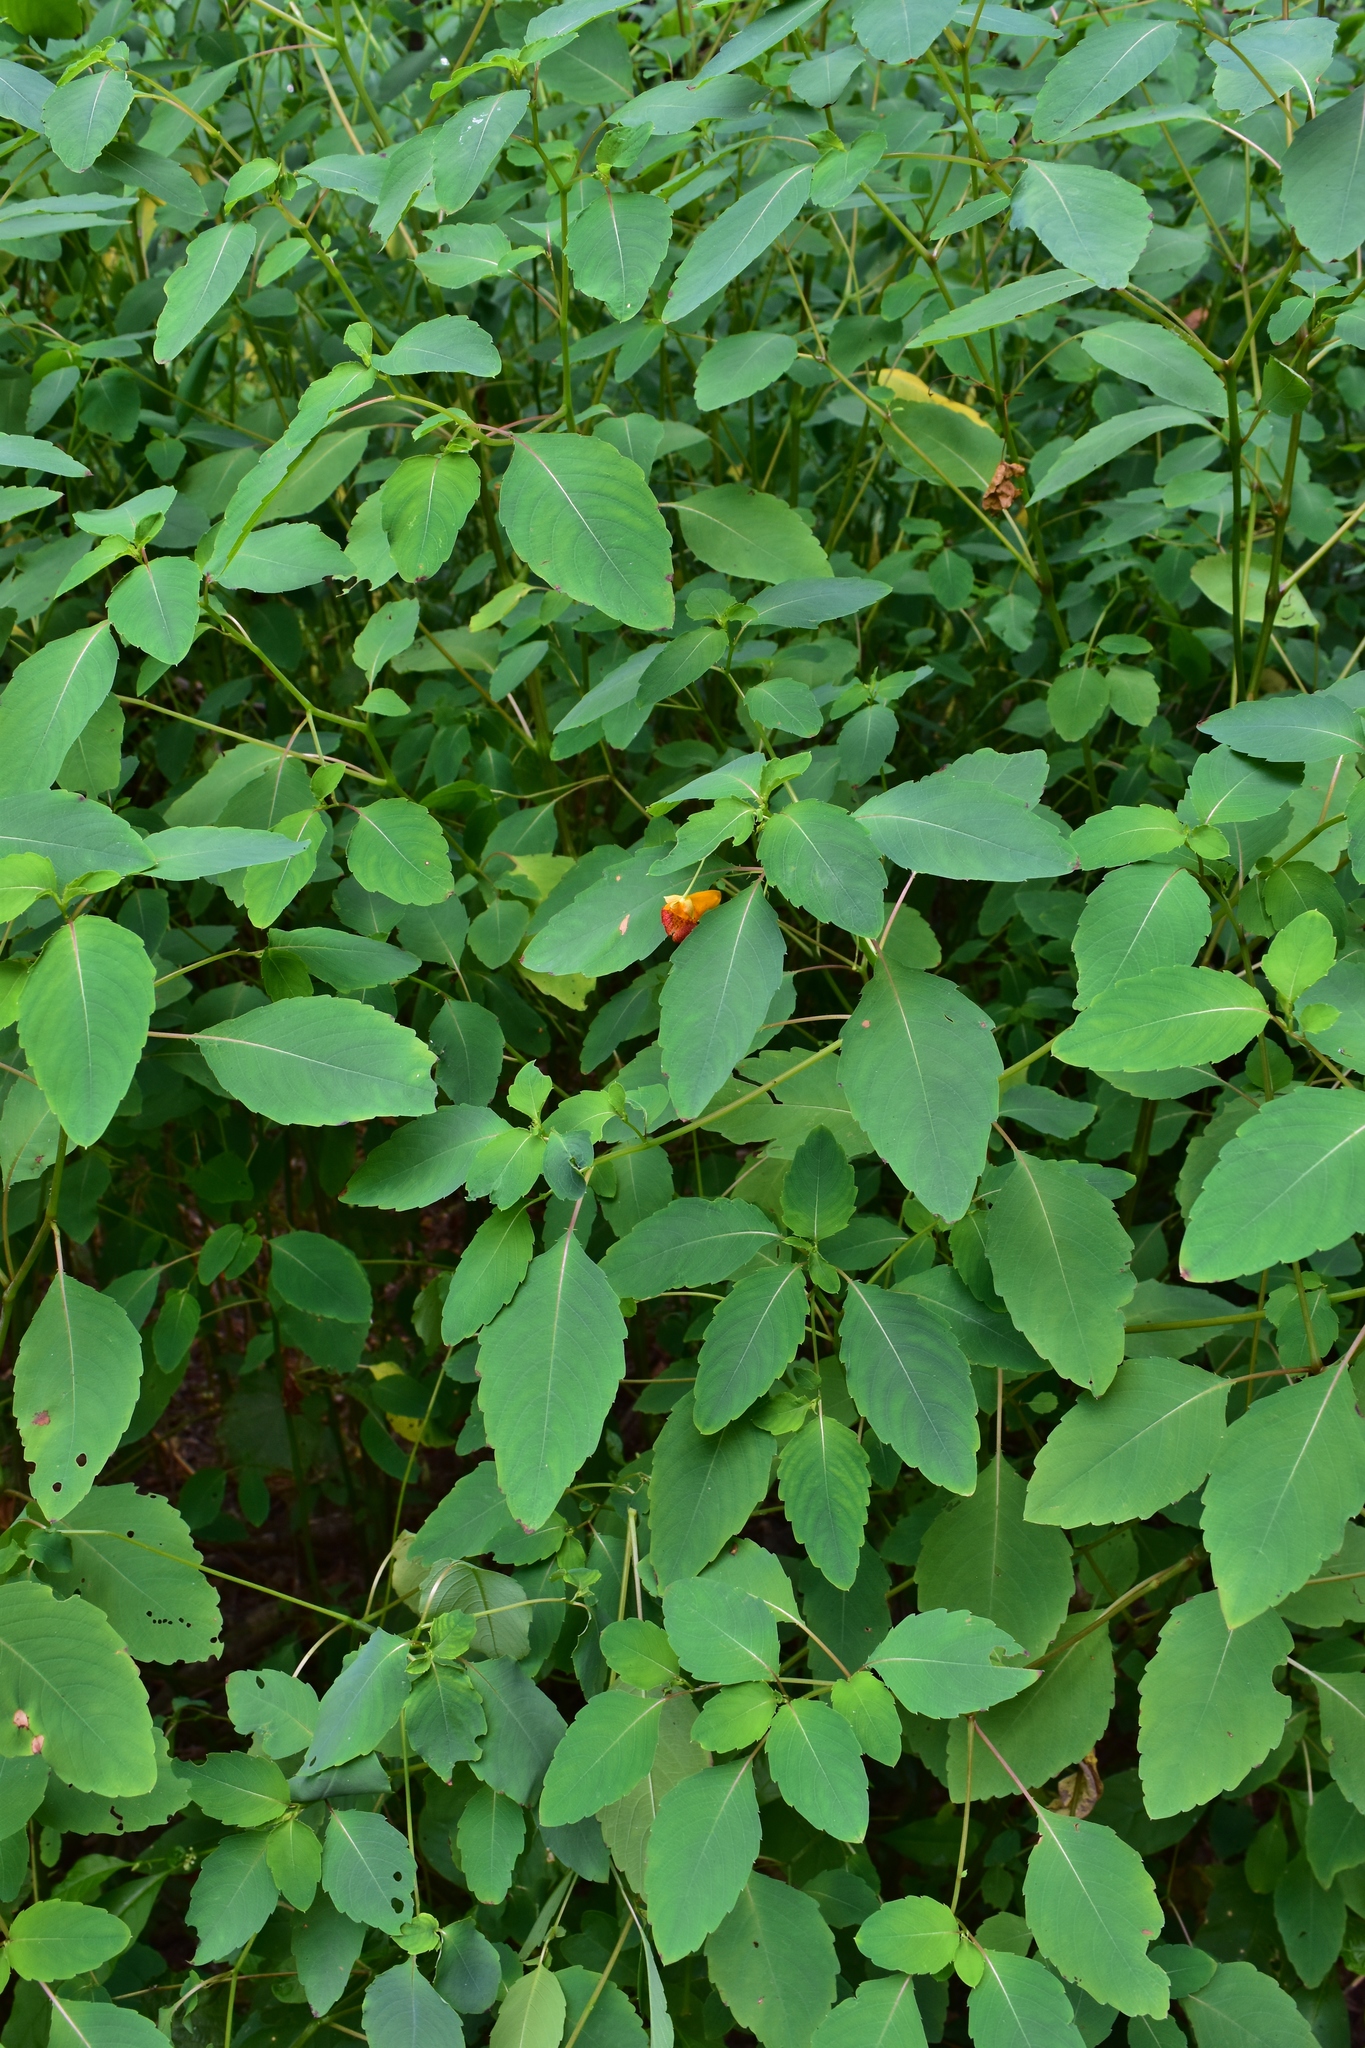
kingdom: Plantae
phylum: Tracheophyta
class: Magnoliopsida
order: Ericales
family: Balsaminaceae
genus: Impatiens
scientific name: Impatiens capensis
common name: Orange balsam
